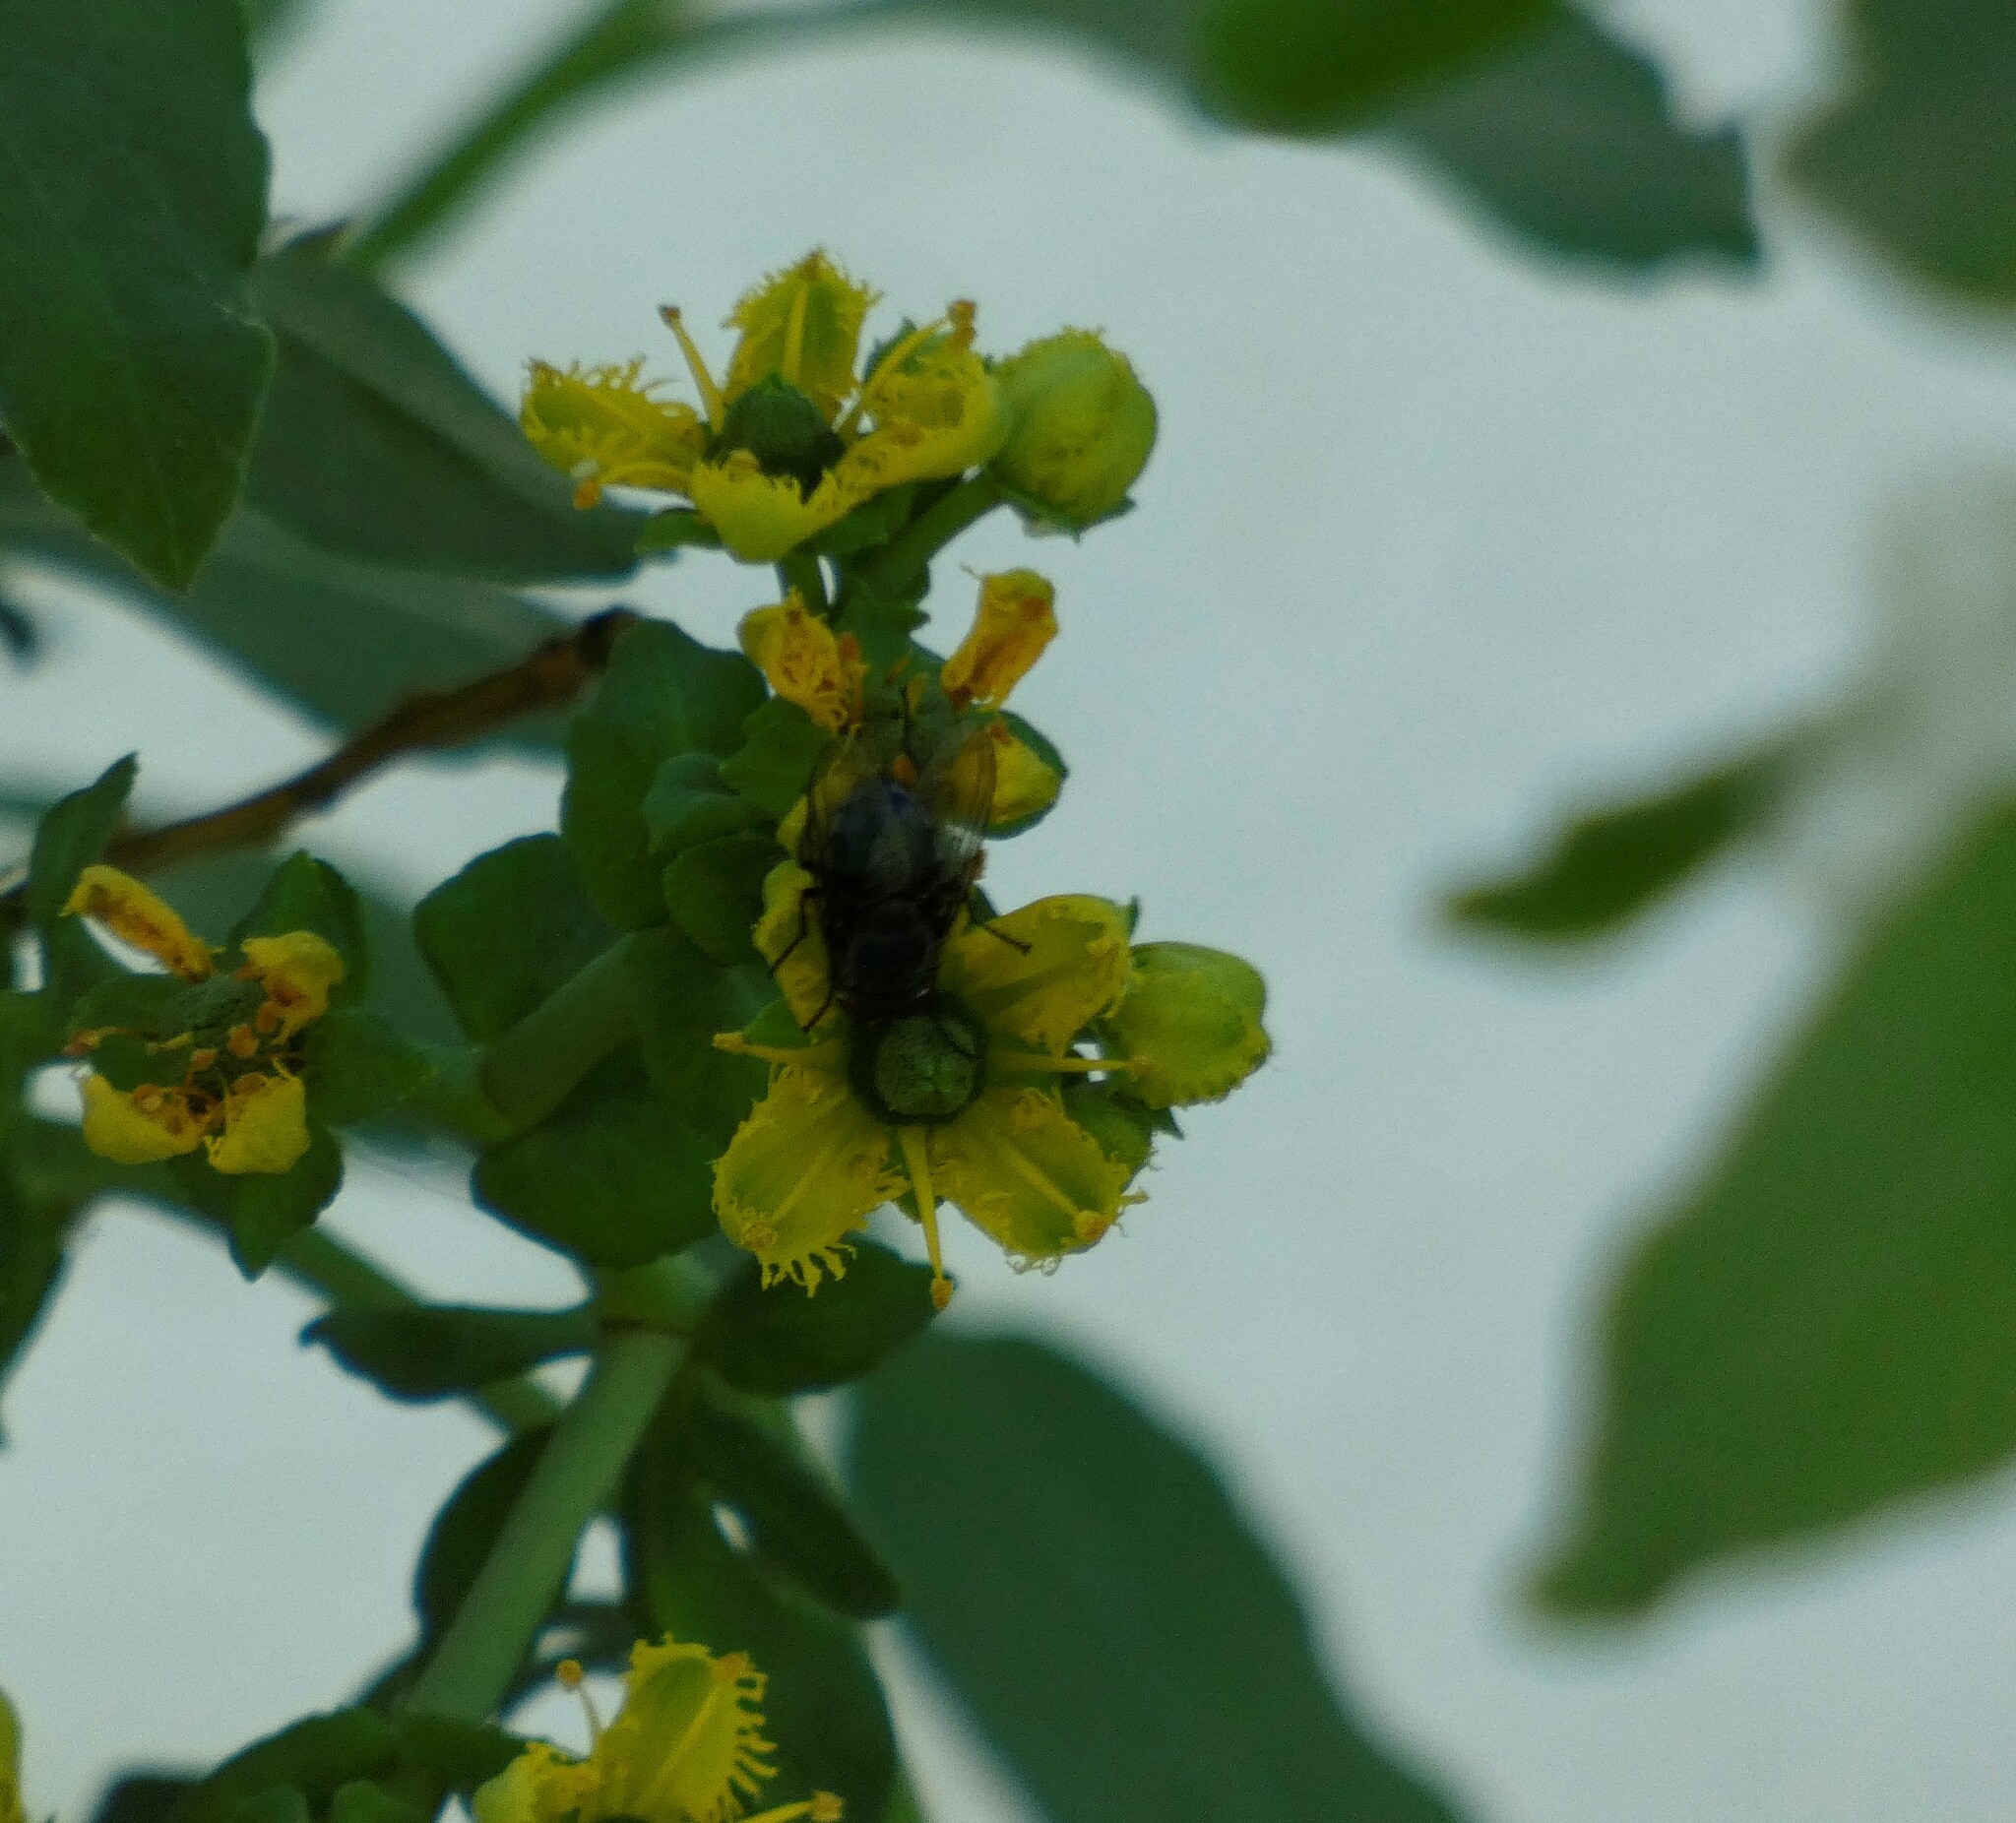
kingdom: Animalia
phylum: Arthropoda
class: Insecta
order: Diptera
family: Calliphoridae
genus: Calliphora
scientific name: Calliphora vicina
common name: Common blow flie
